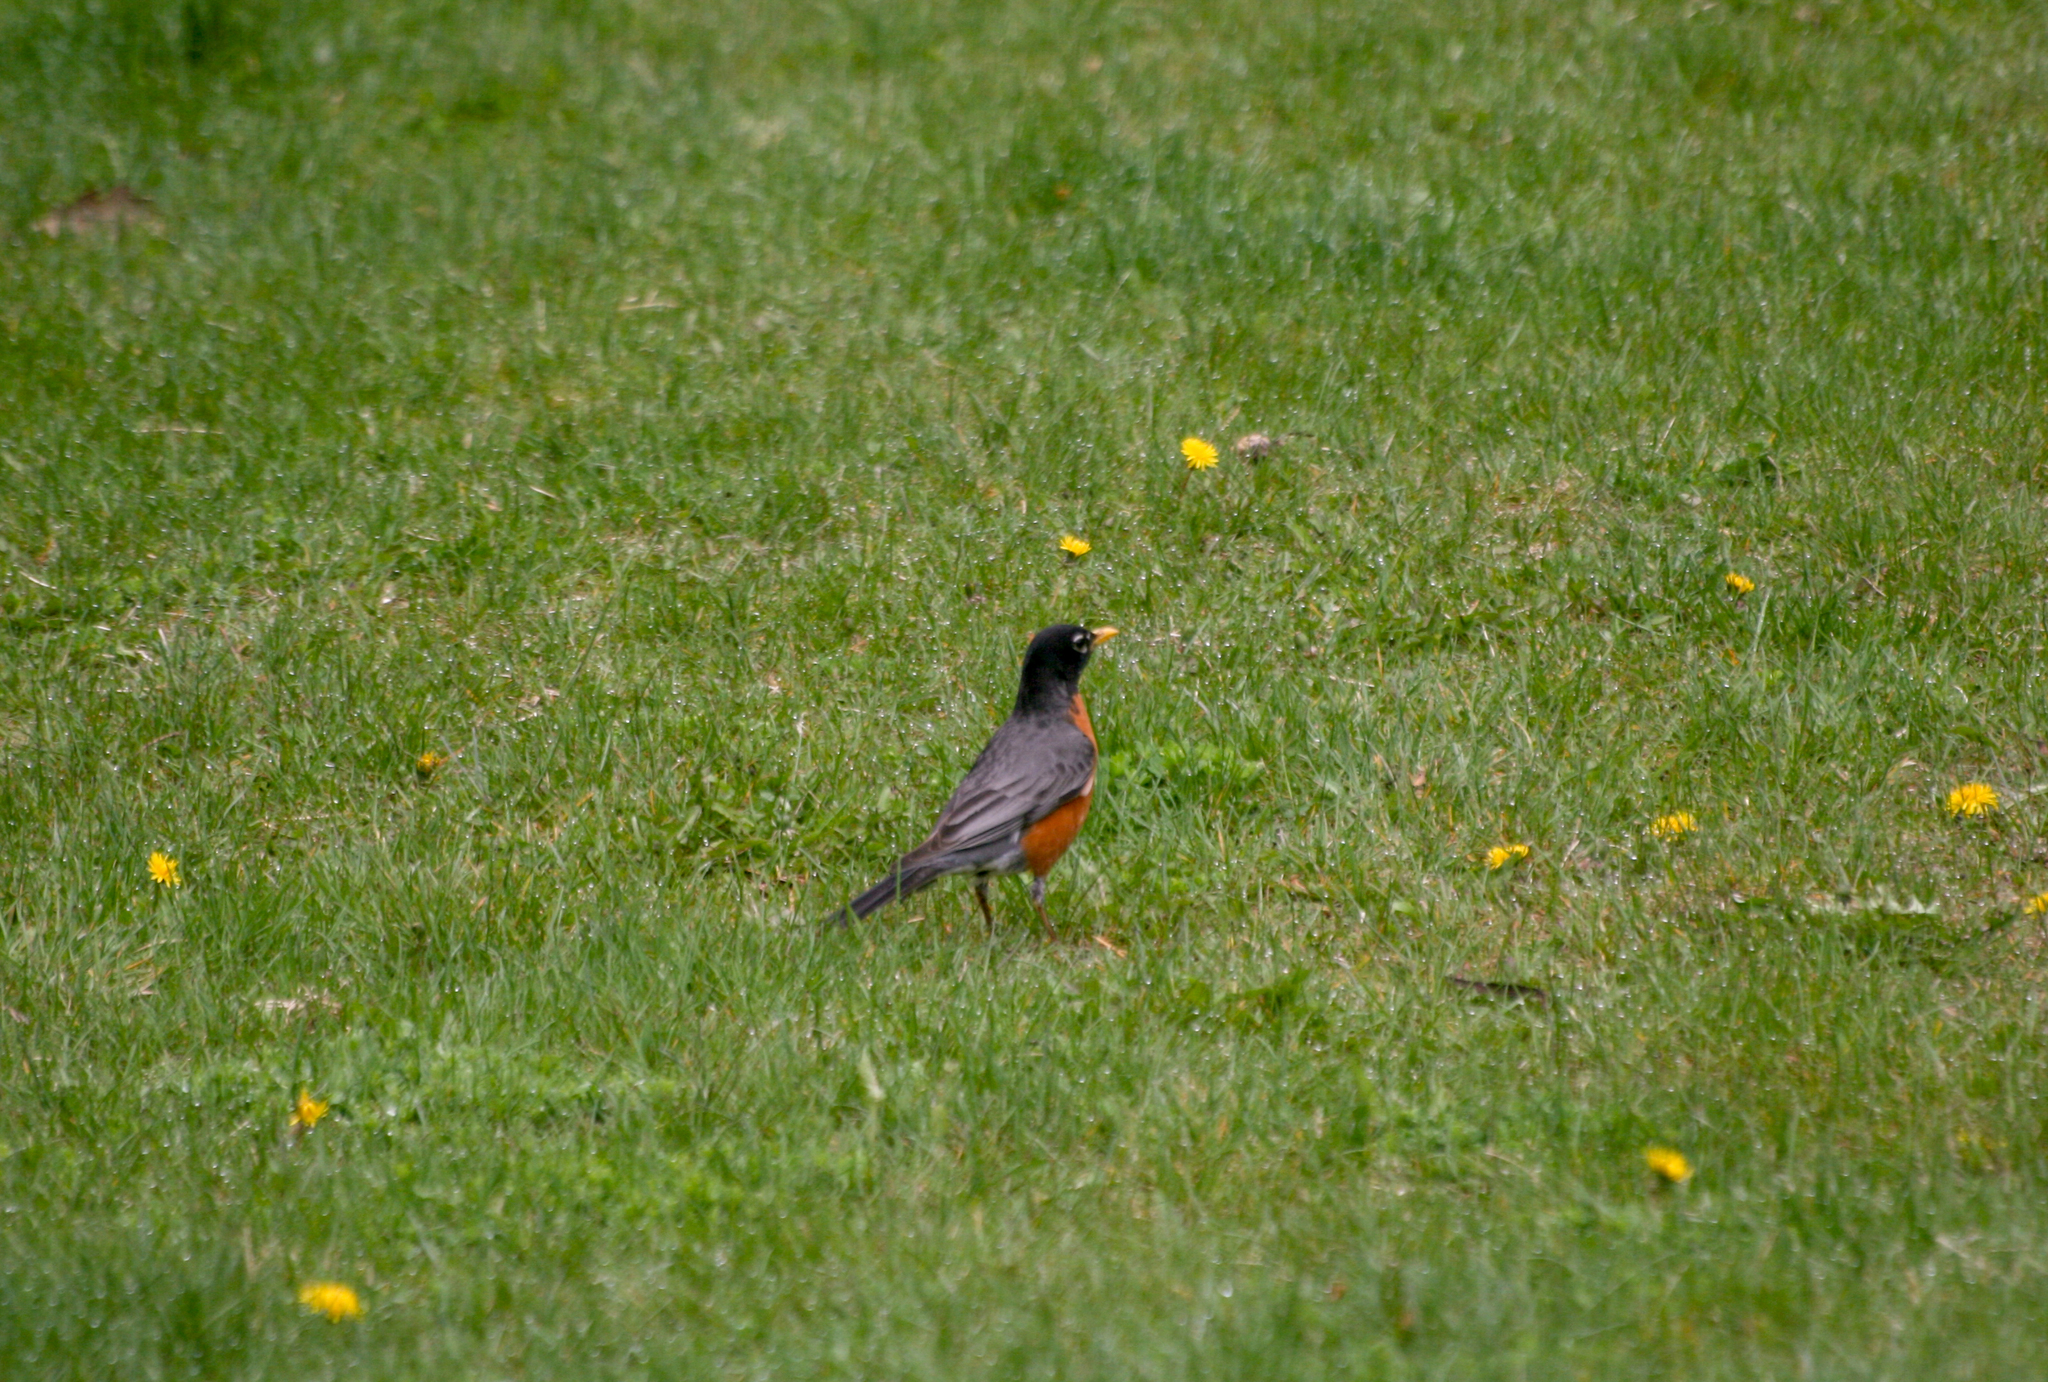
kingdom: Animalia
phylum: Chordata
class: Aves
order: Passeriformes
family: Turdidae
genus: Turdus
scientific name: Turdus migratorius
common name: American robin
